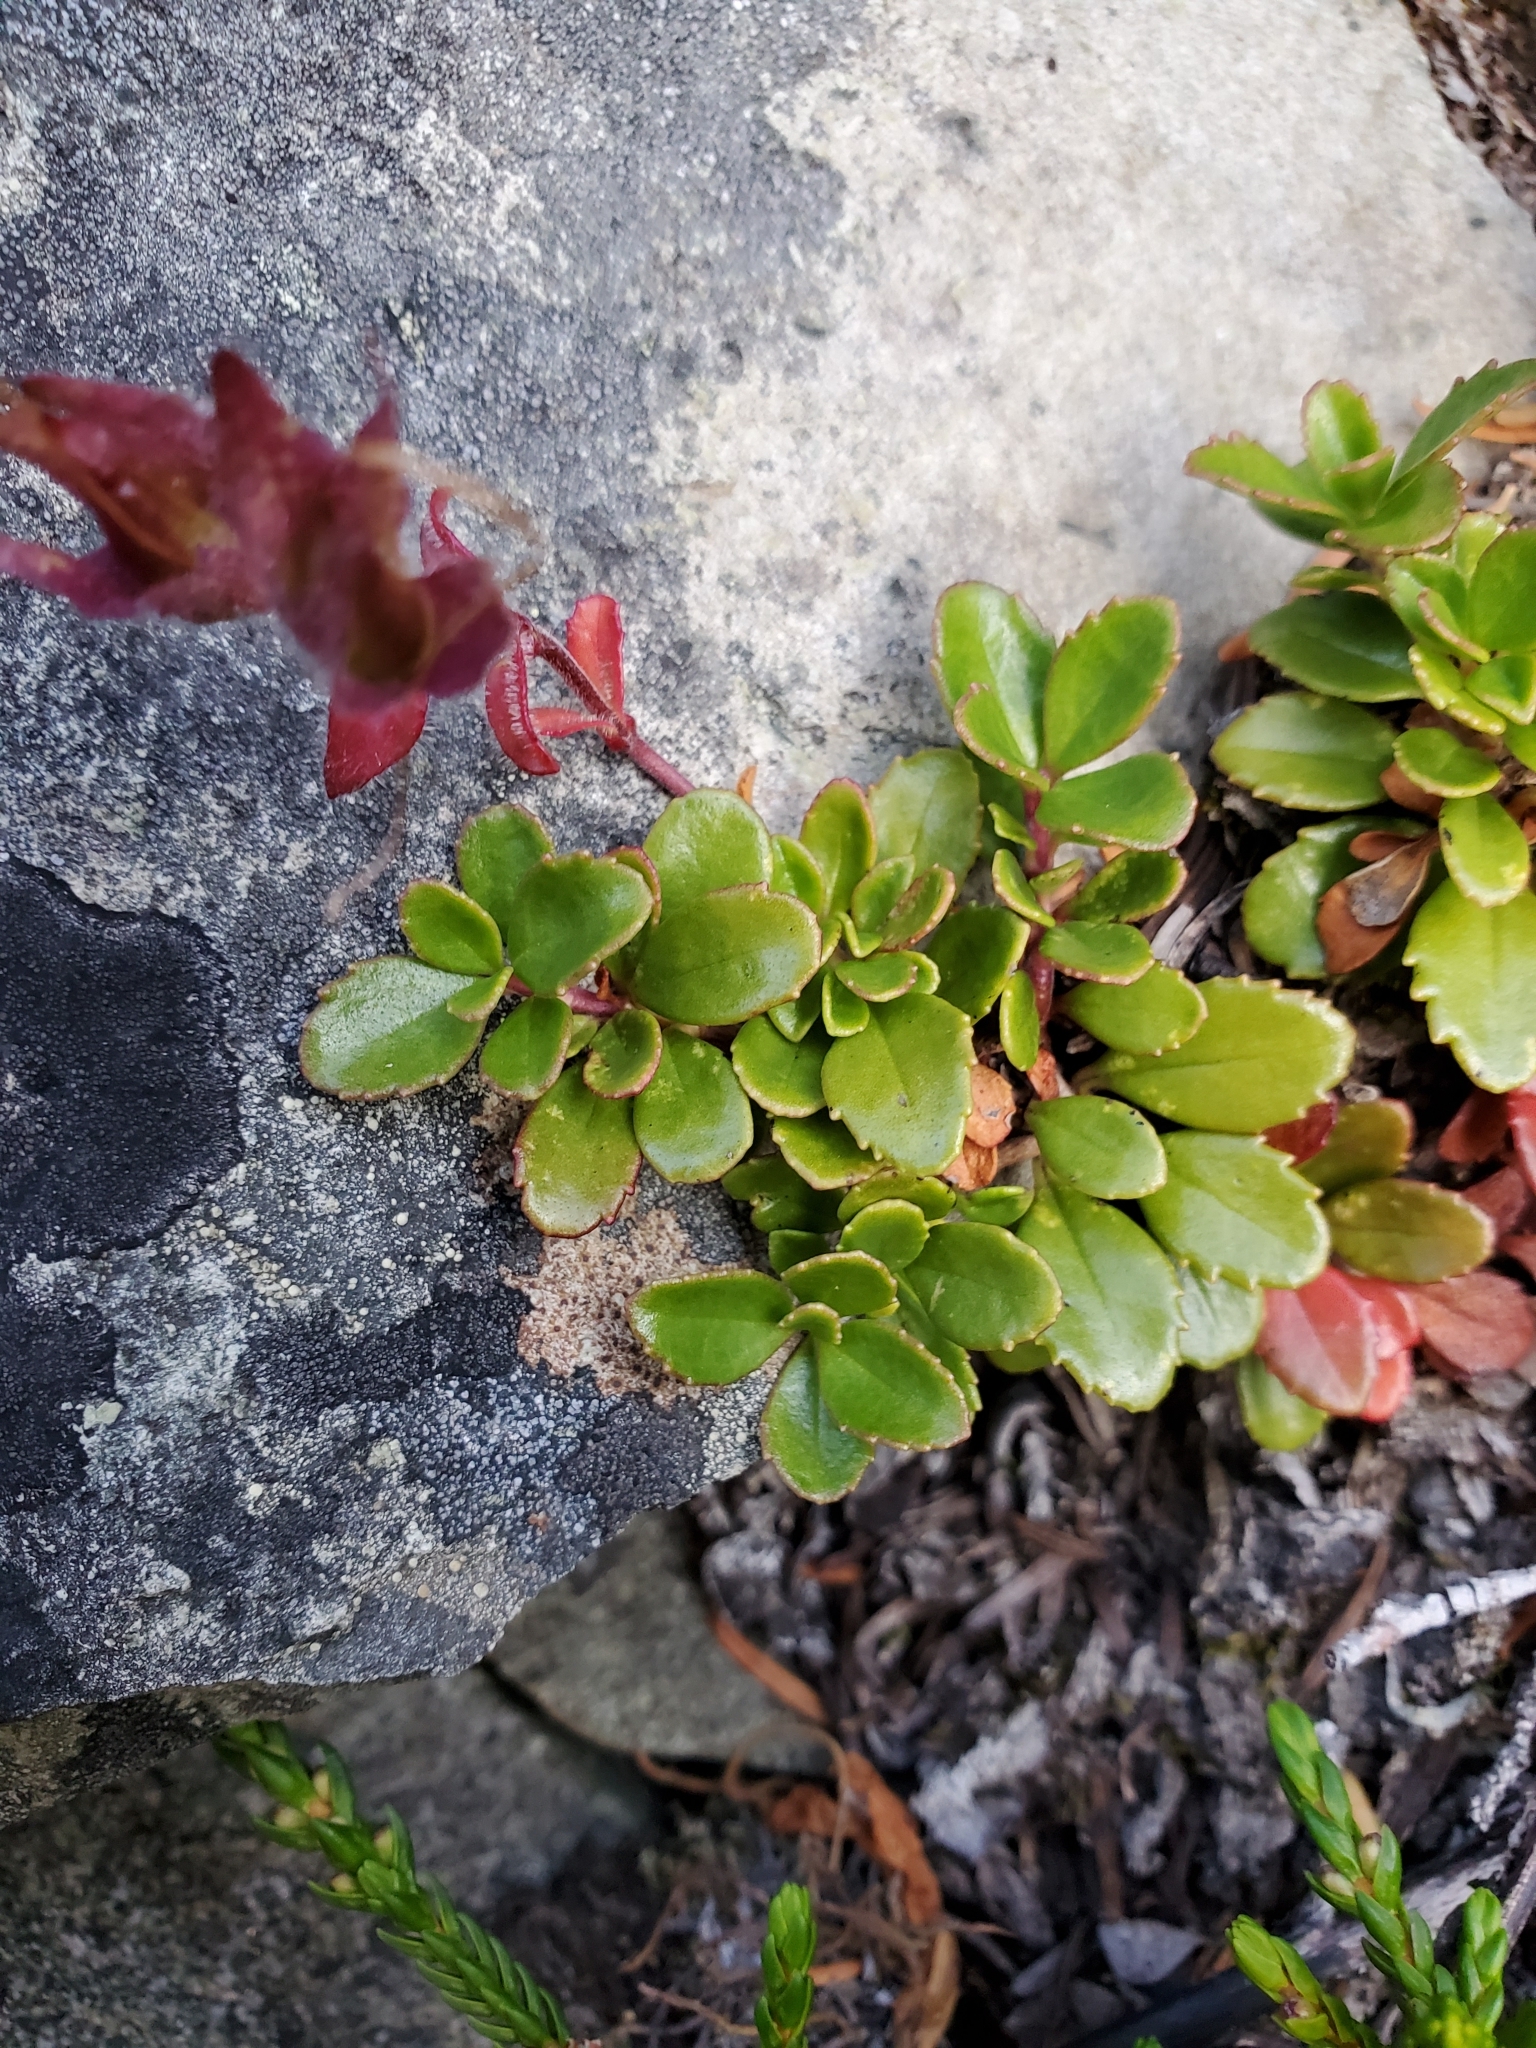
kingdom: Plantae
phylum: Tracheophyta
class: Magnoliopsida
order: Lamiales
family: Plantaginaceae
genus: Penstemon
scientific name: Penstemon davidsonii
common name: Davidson's penstemon
